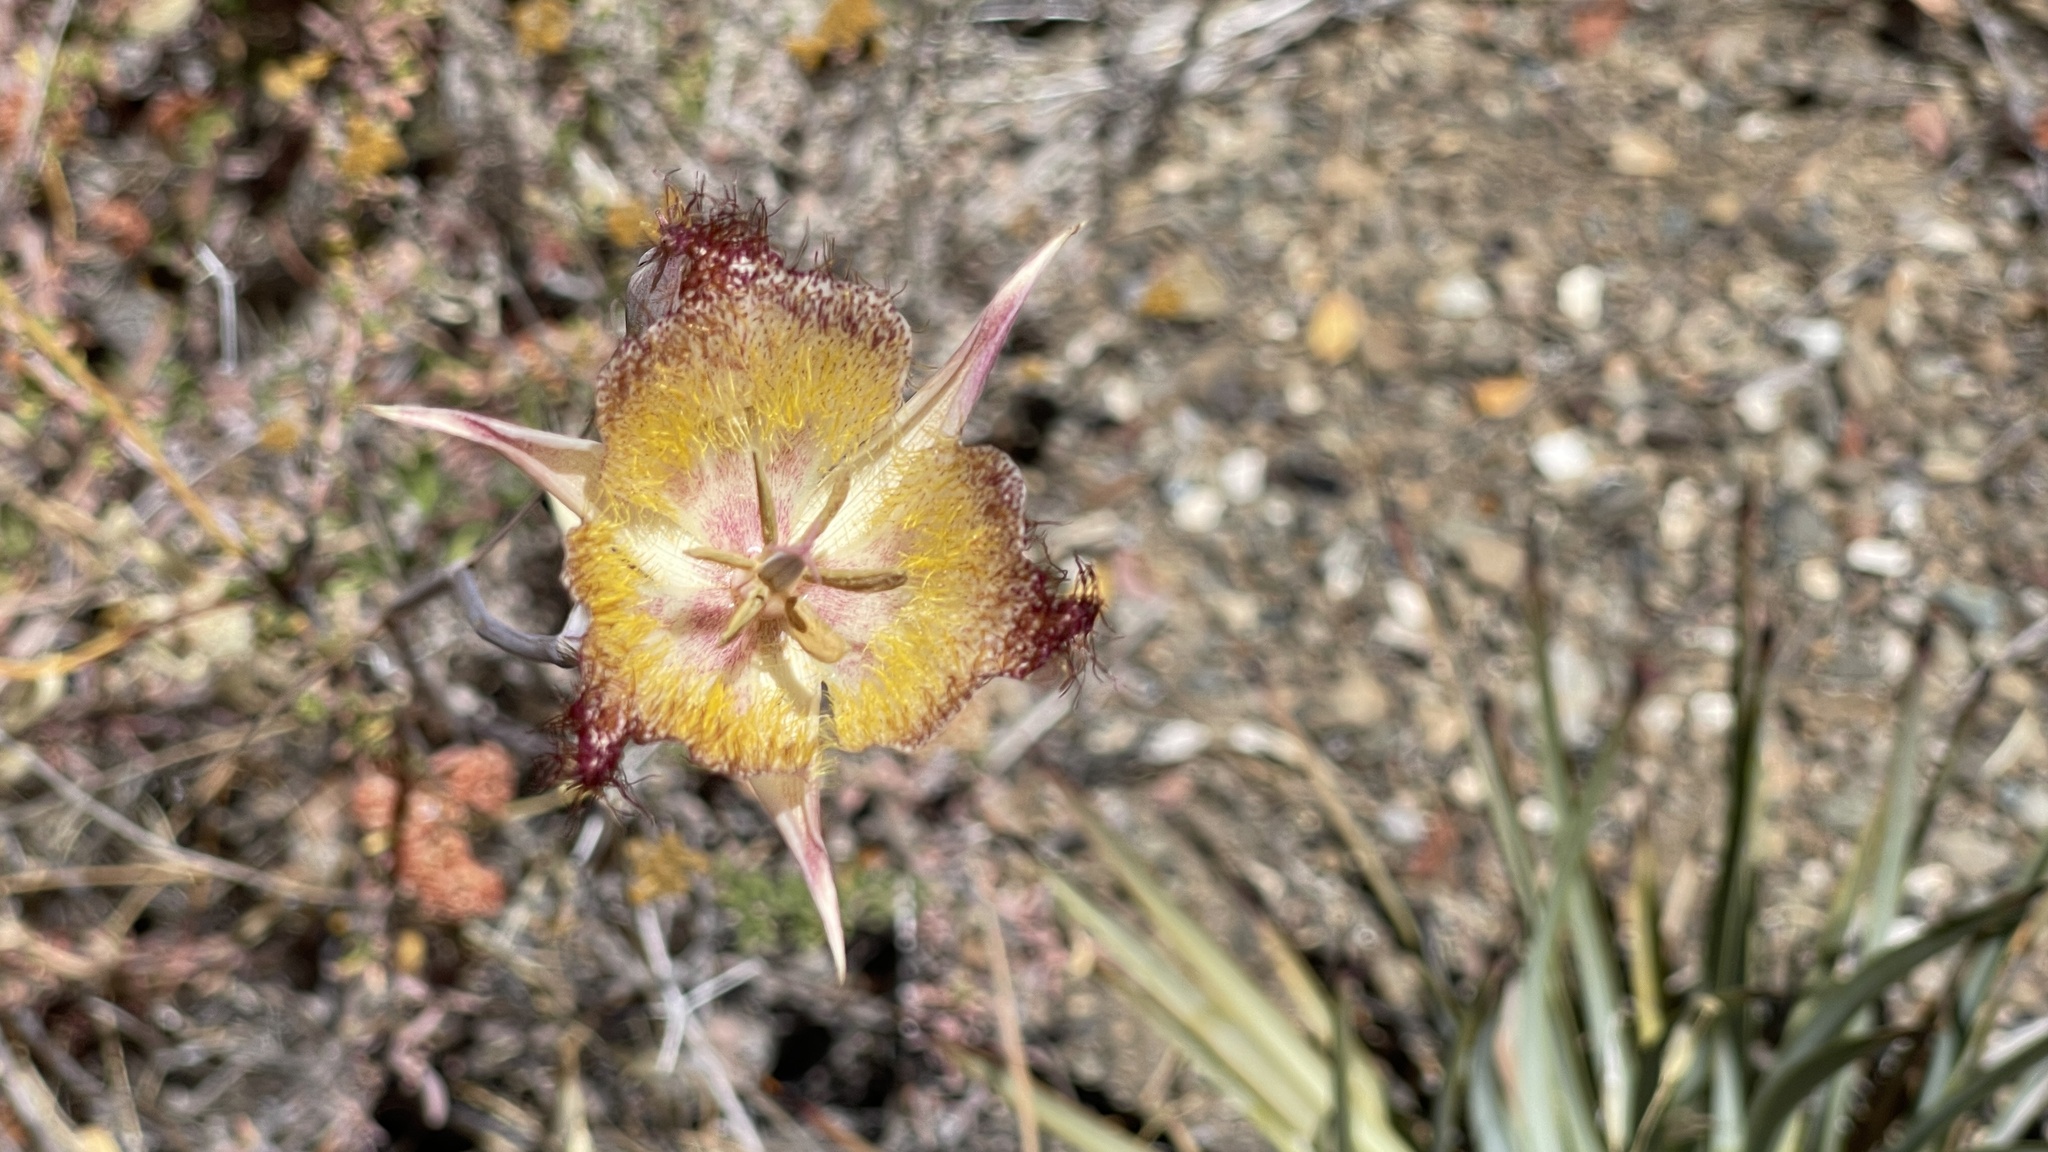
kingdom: Plantae
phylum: Tracheophyta
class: Liliopsida
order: Liliales
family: Liliaceae
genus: Calochortus
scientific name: Calochortus fimbriatus
